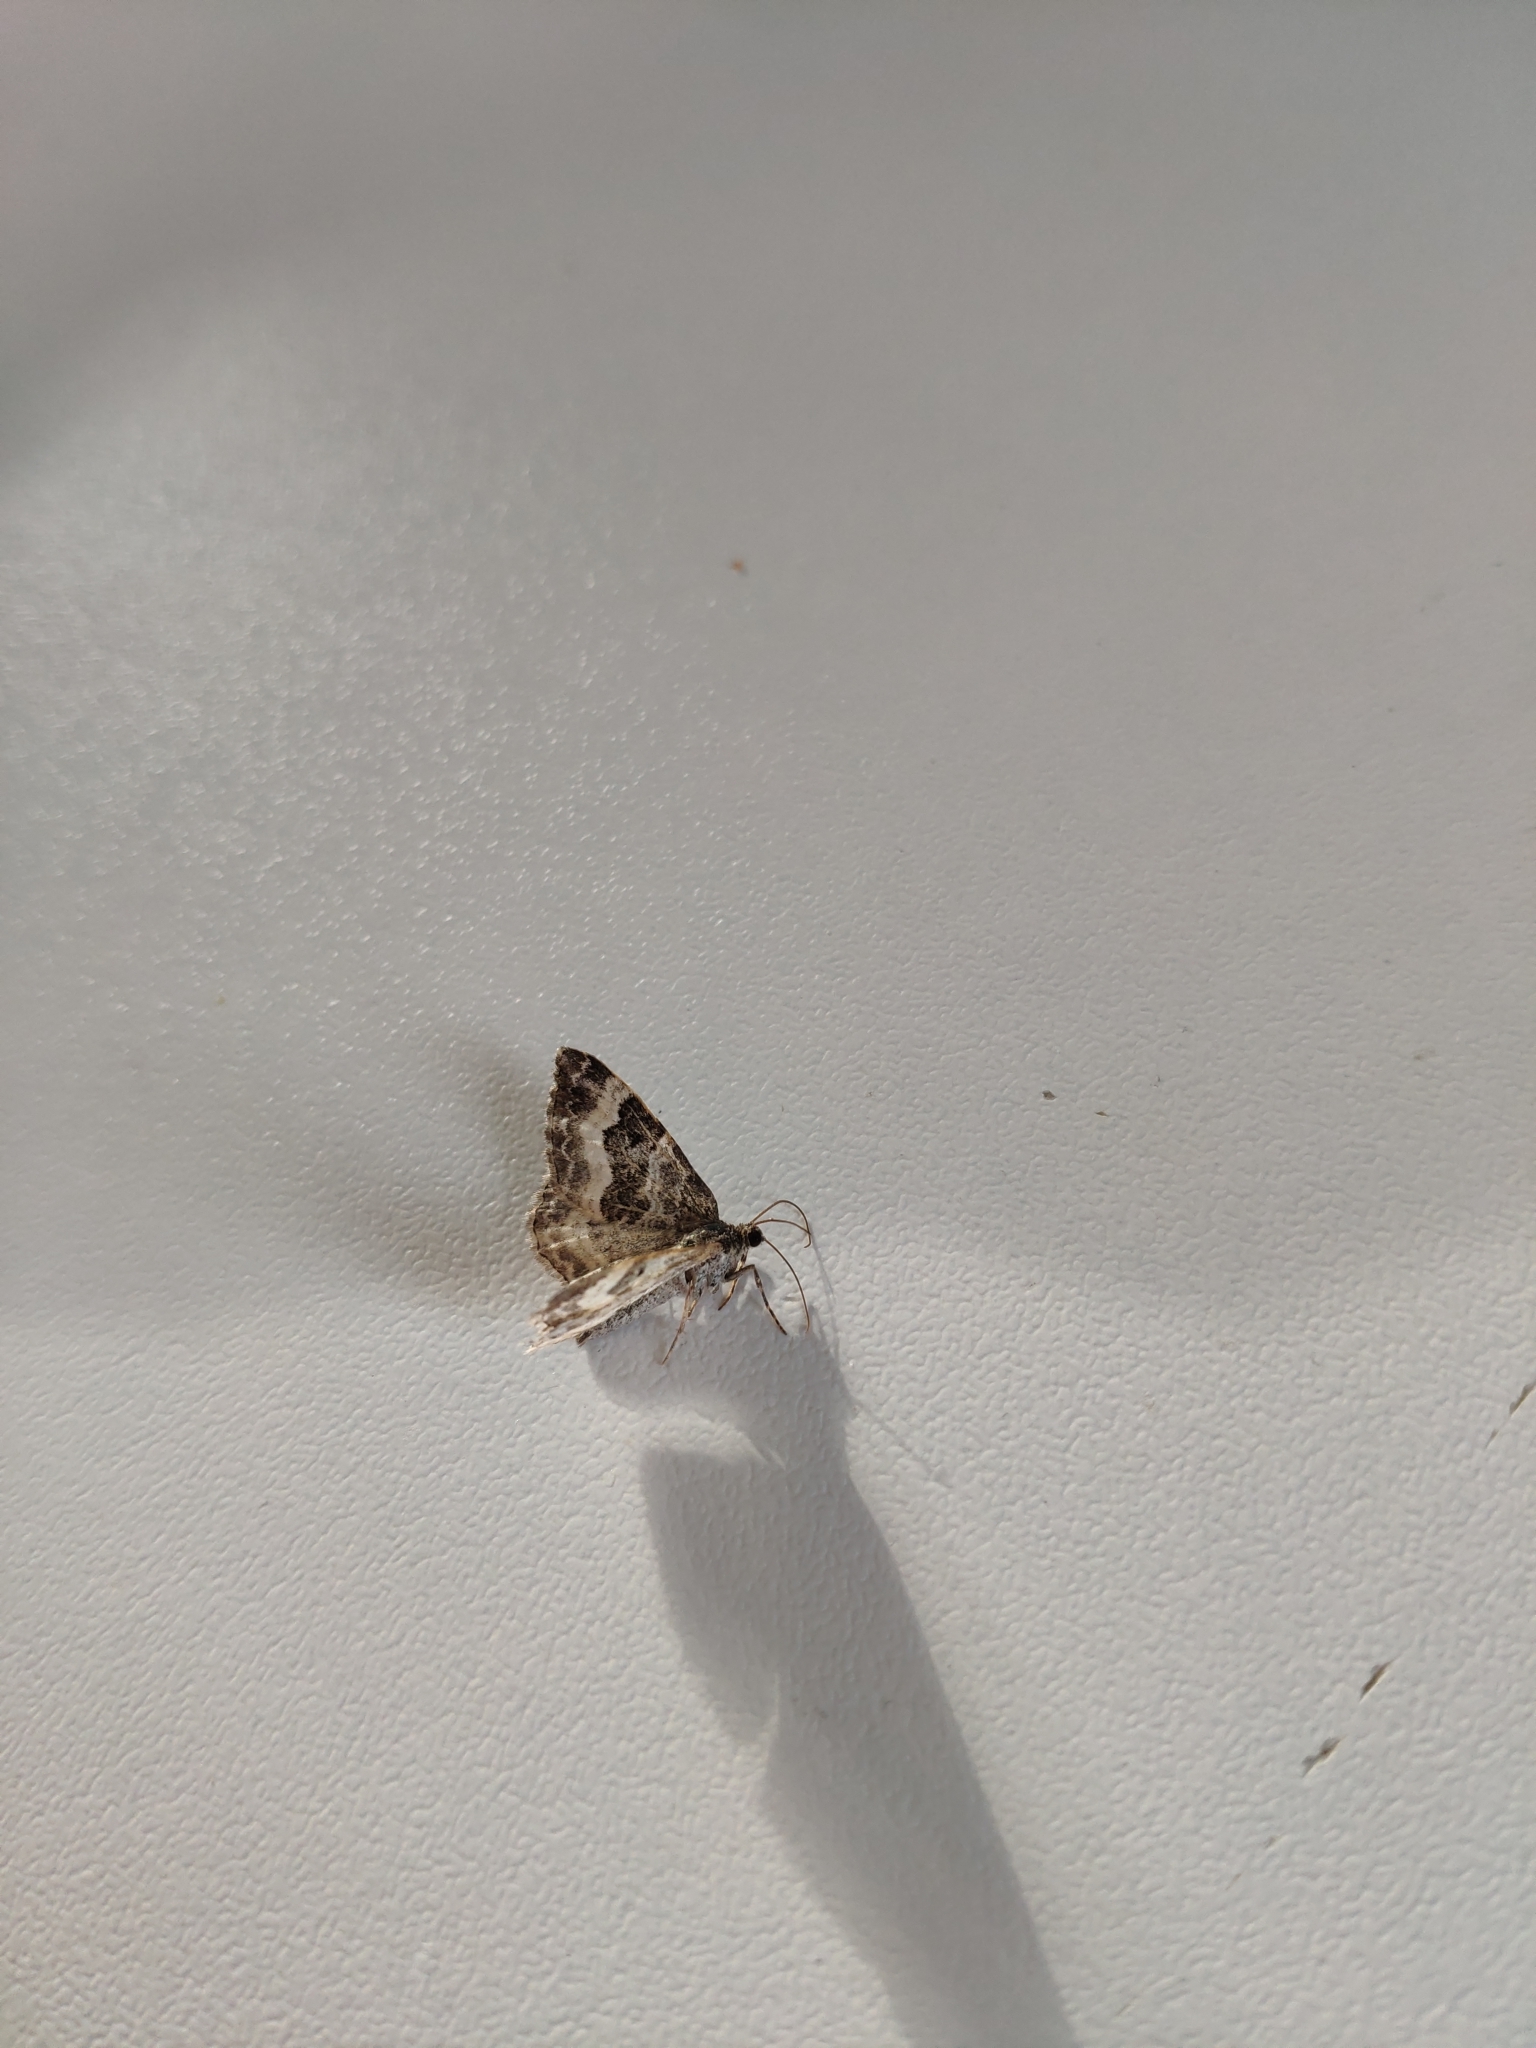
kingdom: Animalia
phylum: Arthropoda
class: Insecta
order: Lepidoptera
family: Geometridae
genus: Epirrhoe
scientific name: Epirrhoe alternata
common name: Common carpet
